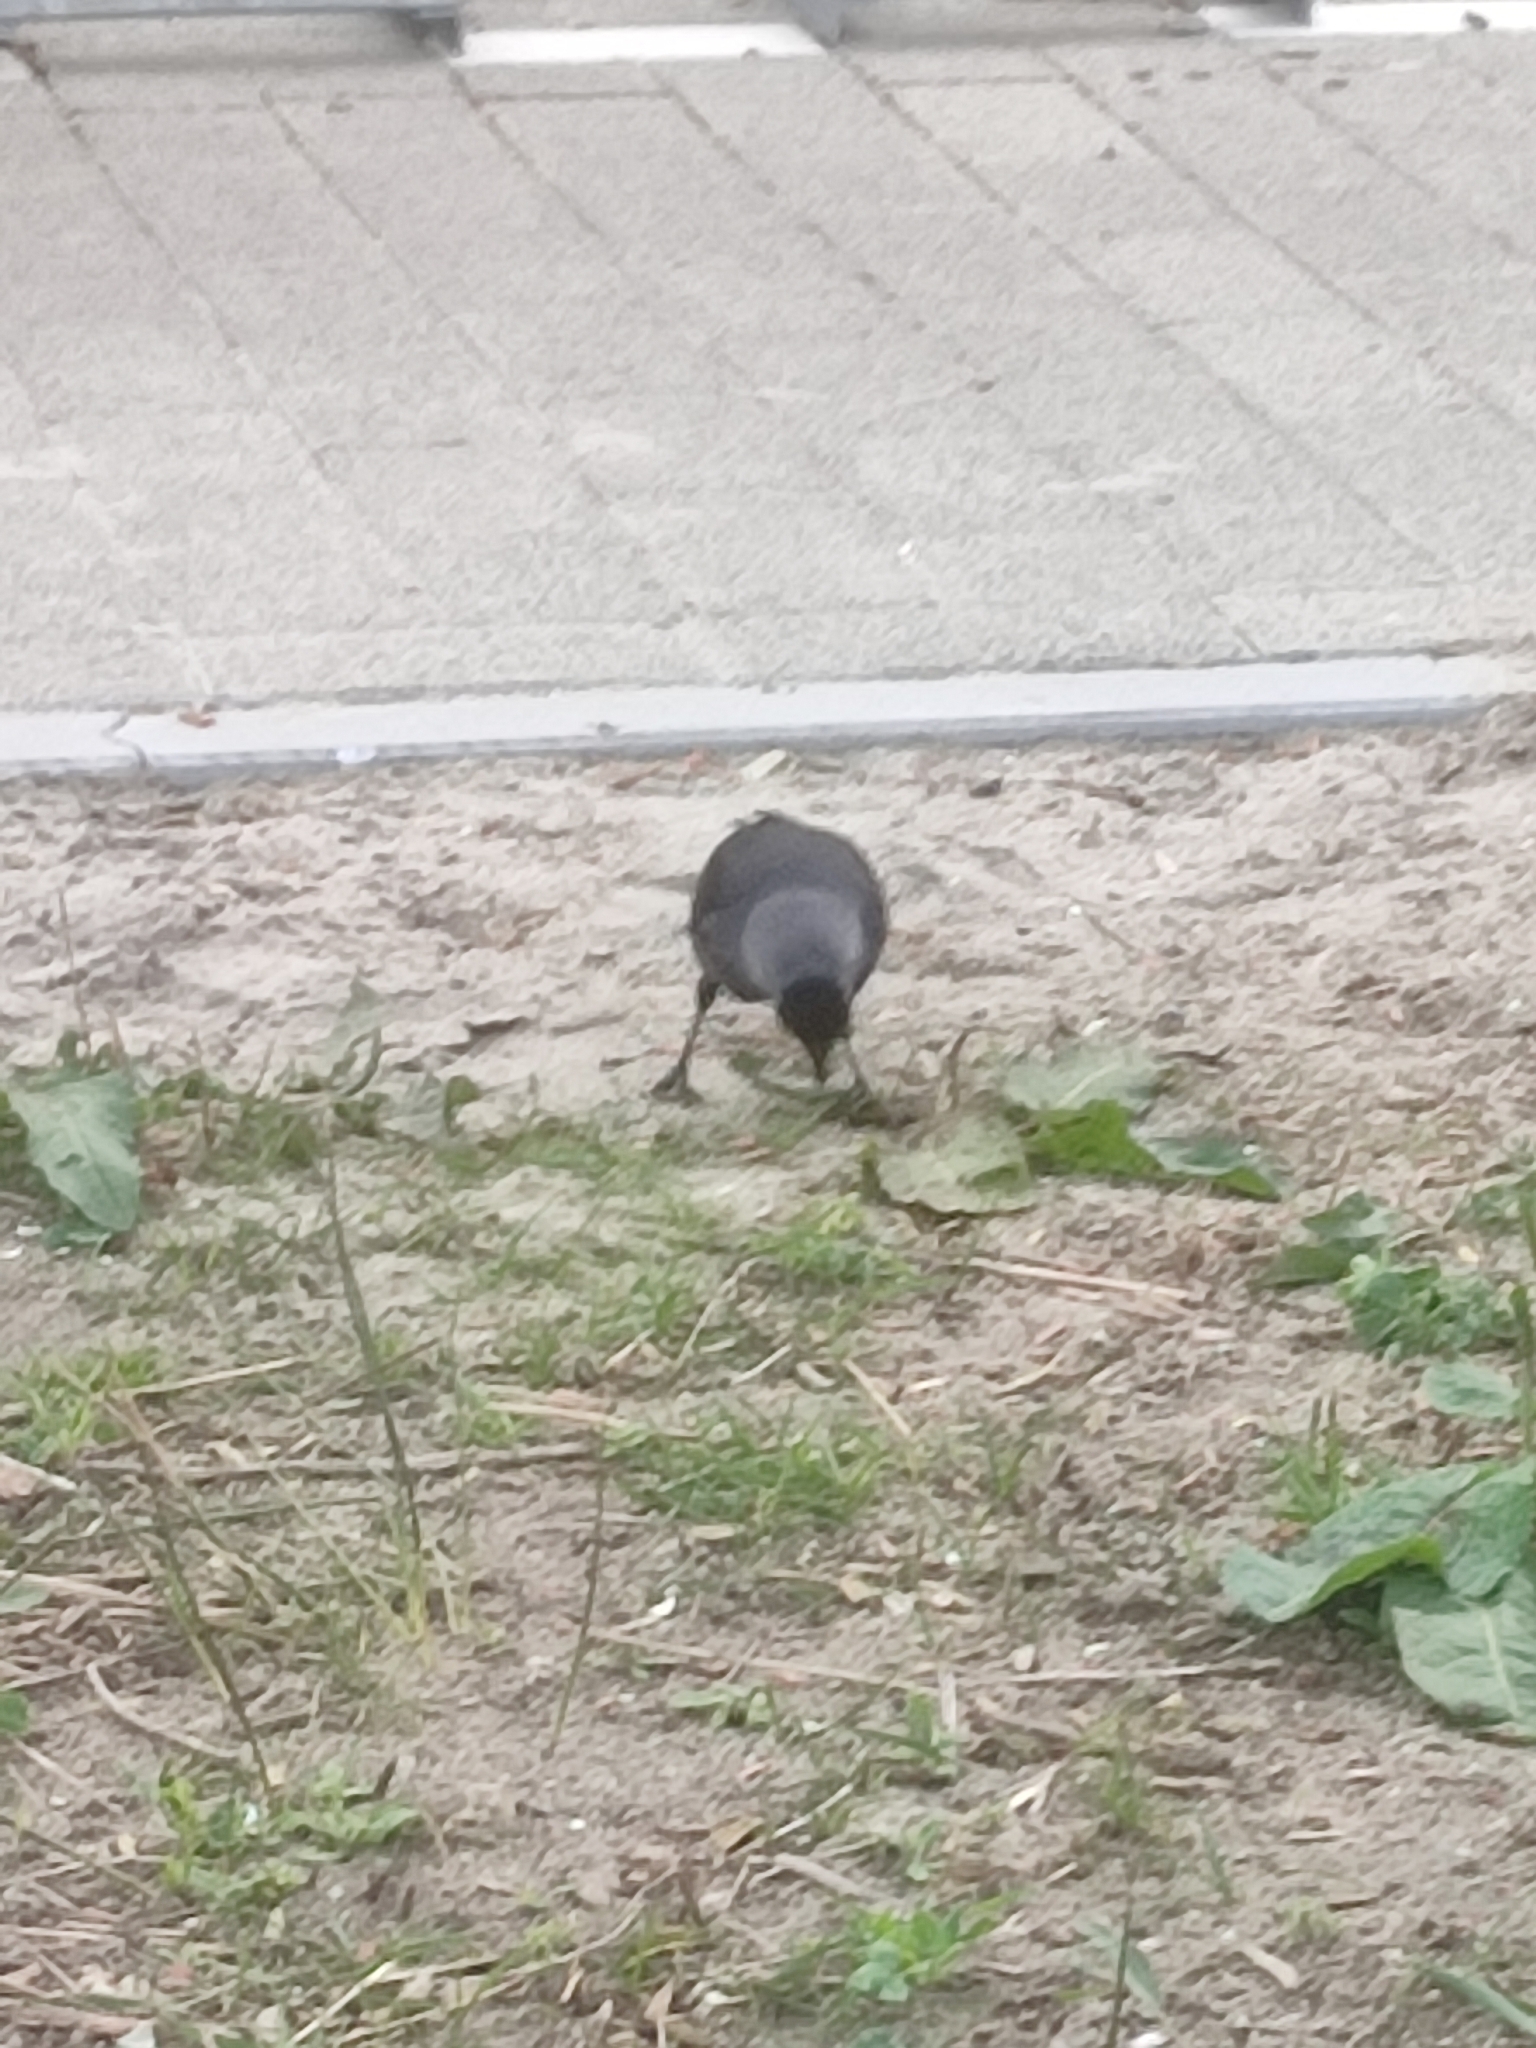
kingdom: Animalia
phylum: Chordata
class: Aves
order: Passeriformes
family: Corvidae
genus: Coloeus
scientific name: Coloeus monedula
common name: Western jackdaw
